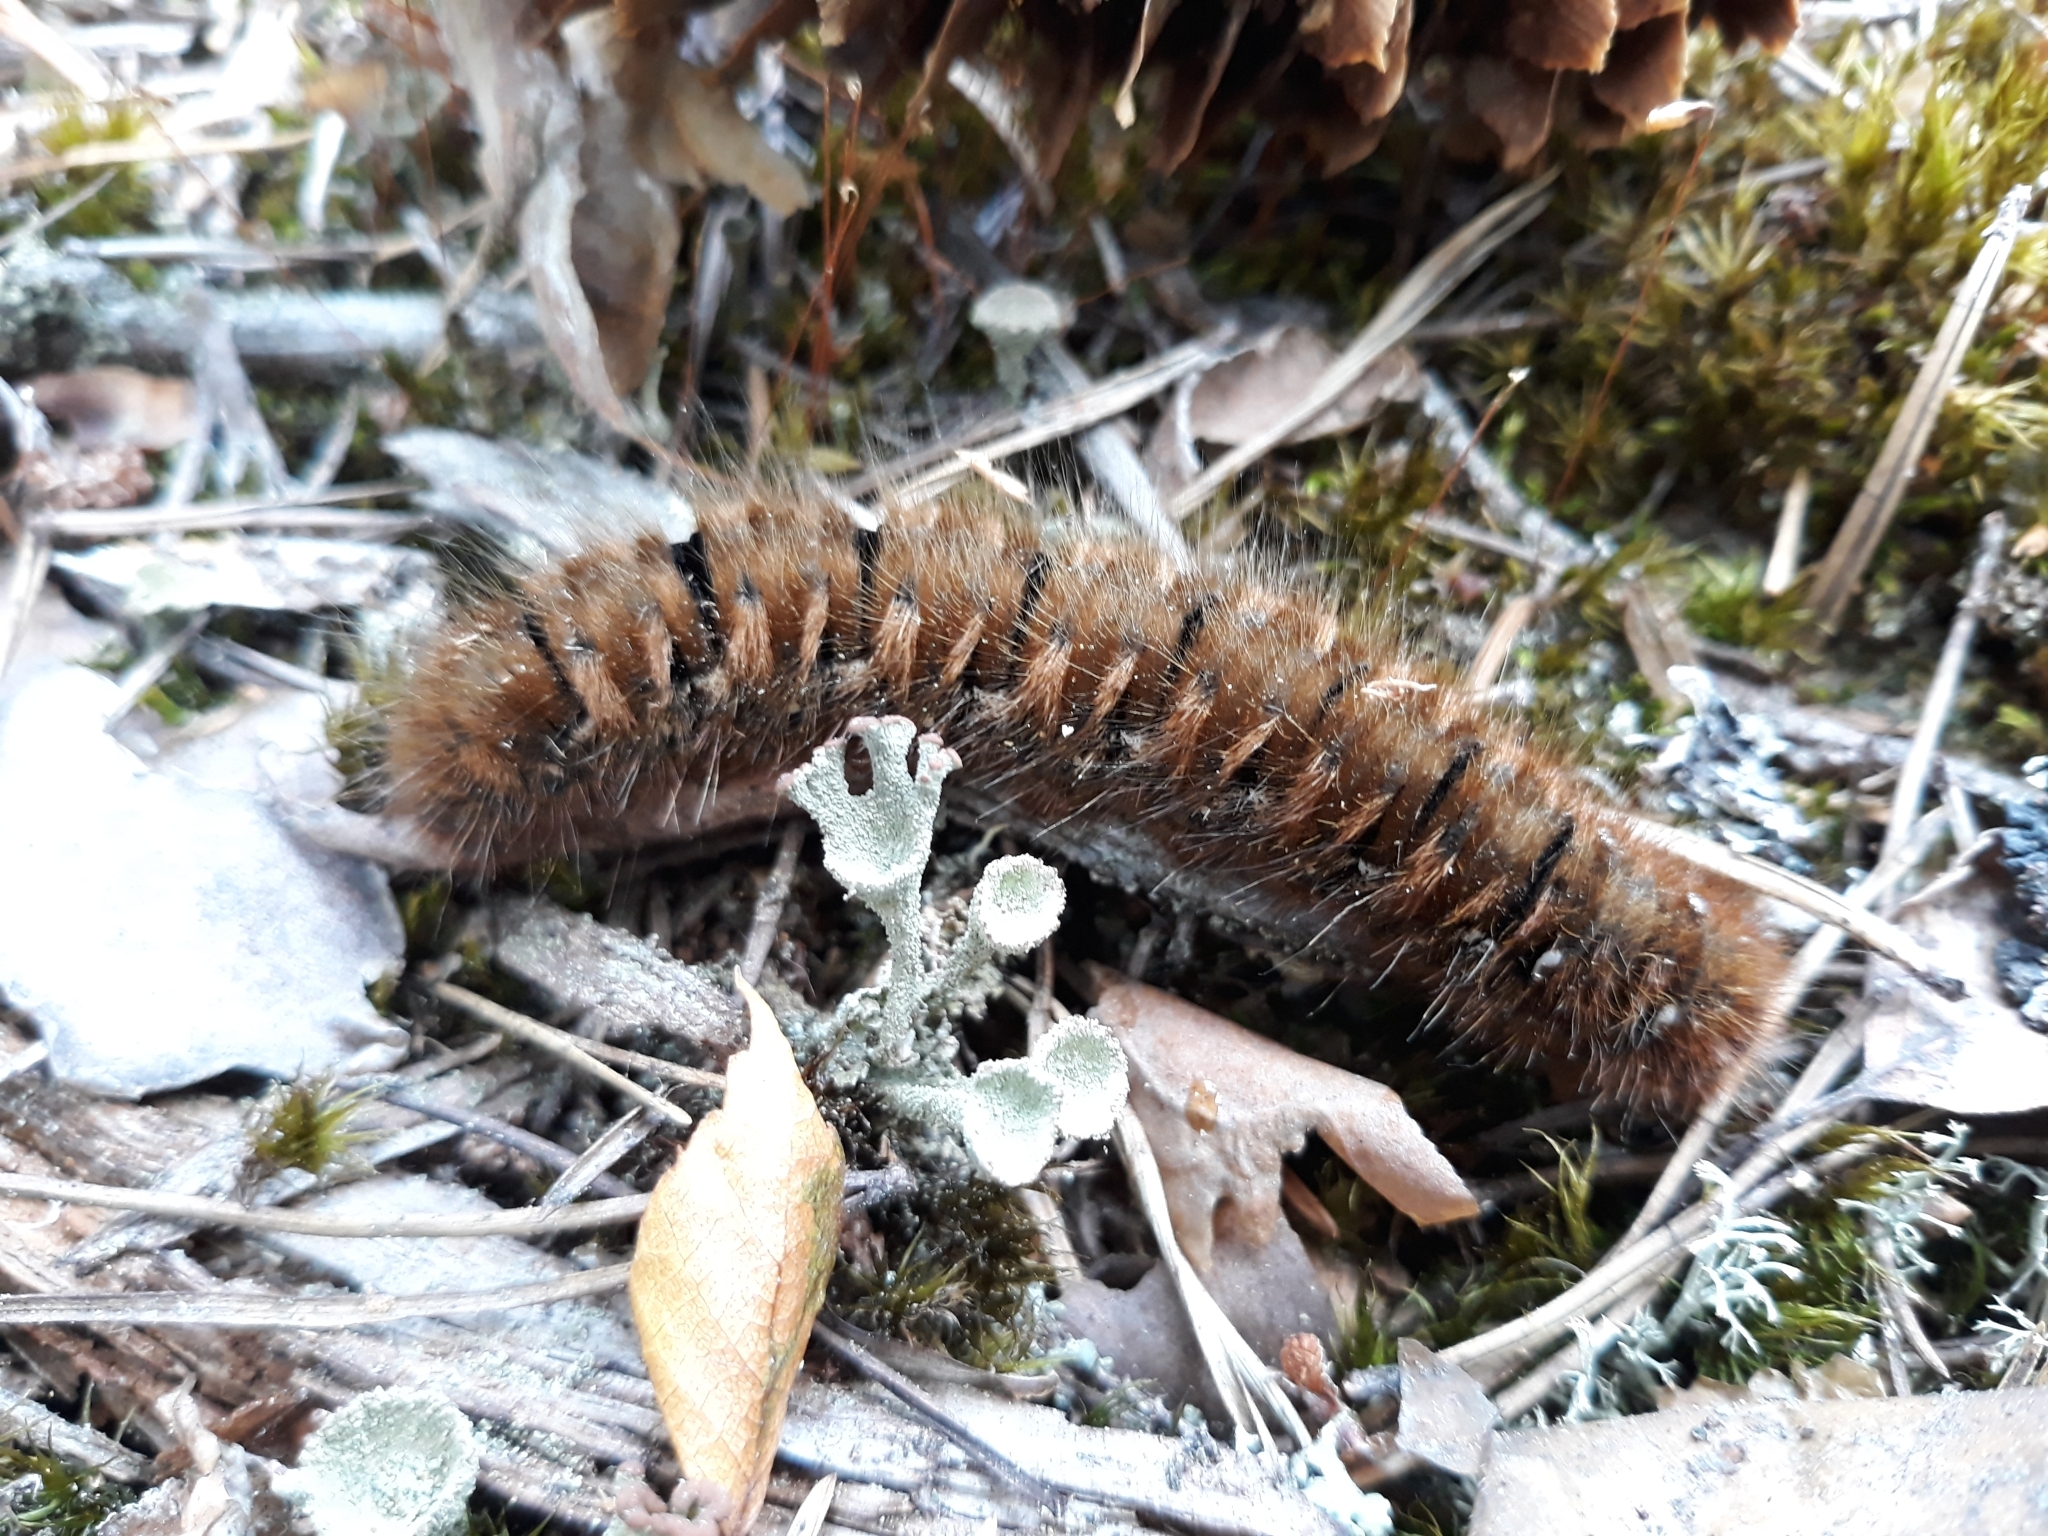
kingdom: Animalia
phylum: Arthropoda
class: Insecta
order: Lepidoptera
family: Lasiocampidae
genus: Lasiocampa
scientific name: Lasiocampa quercus
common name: Oak eggar
